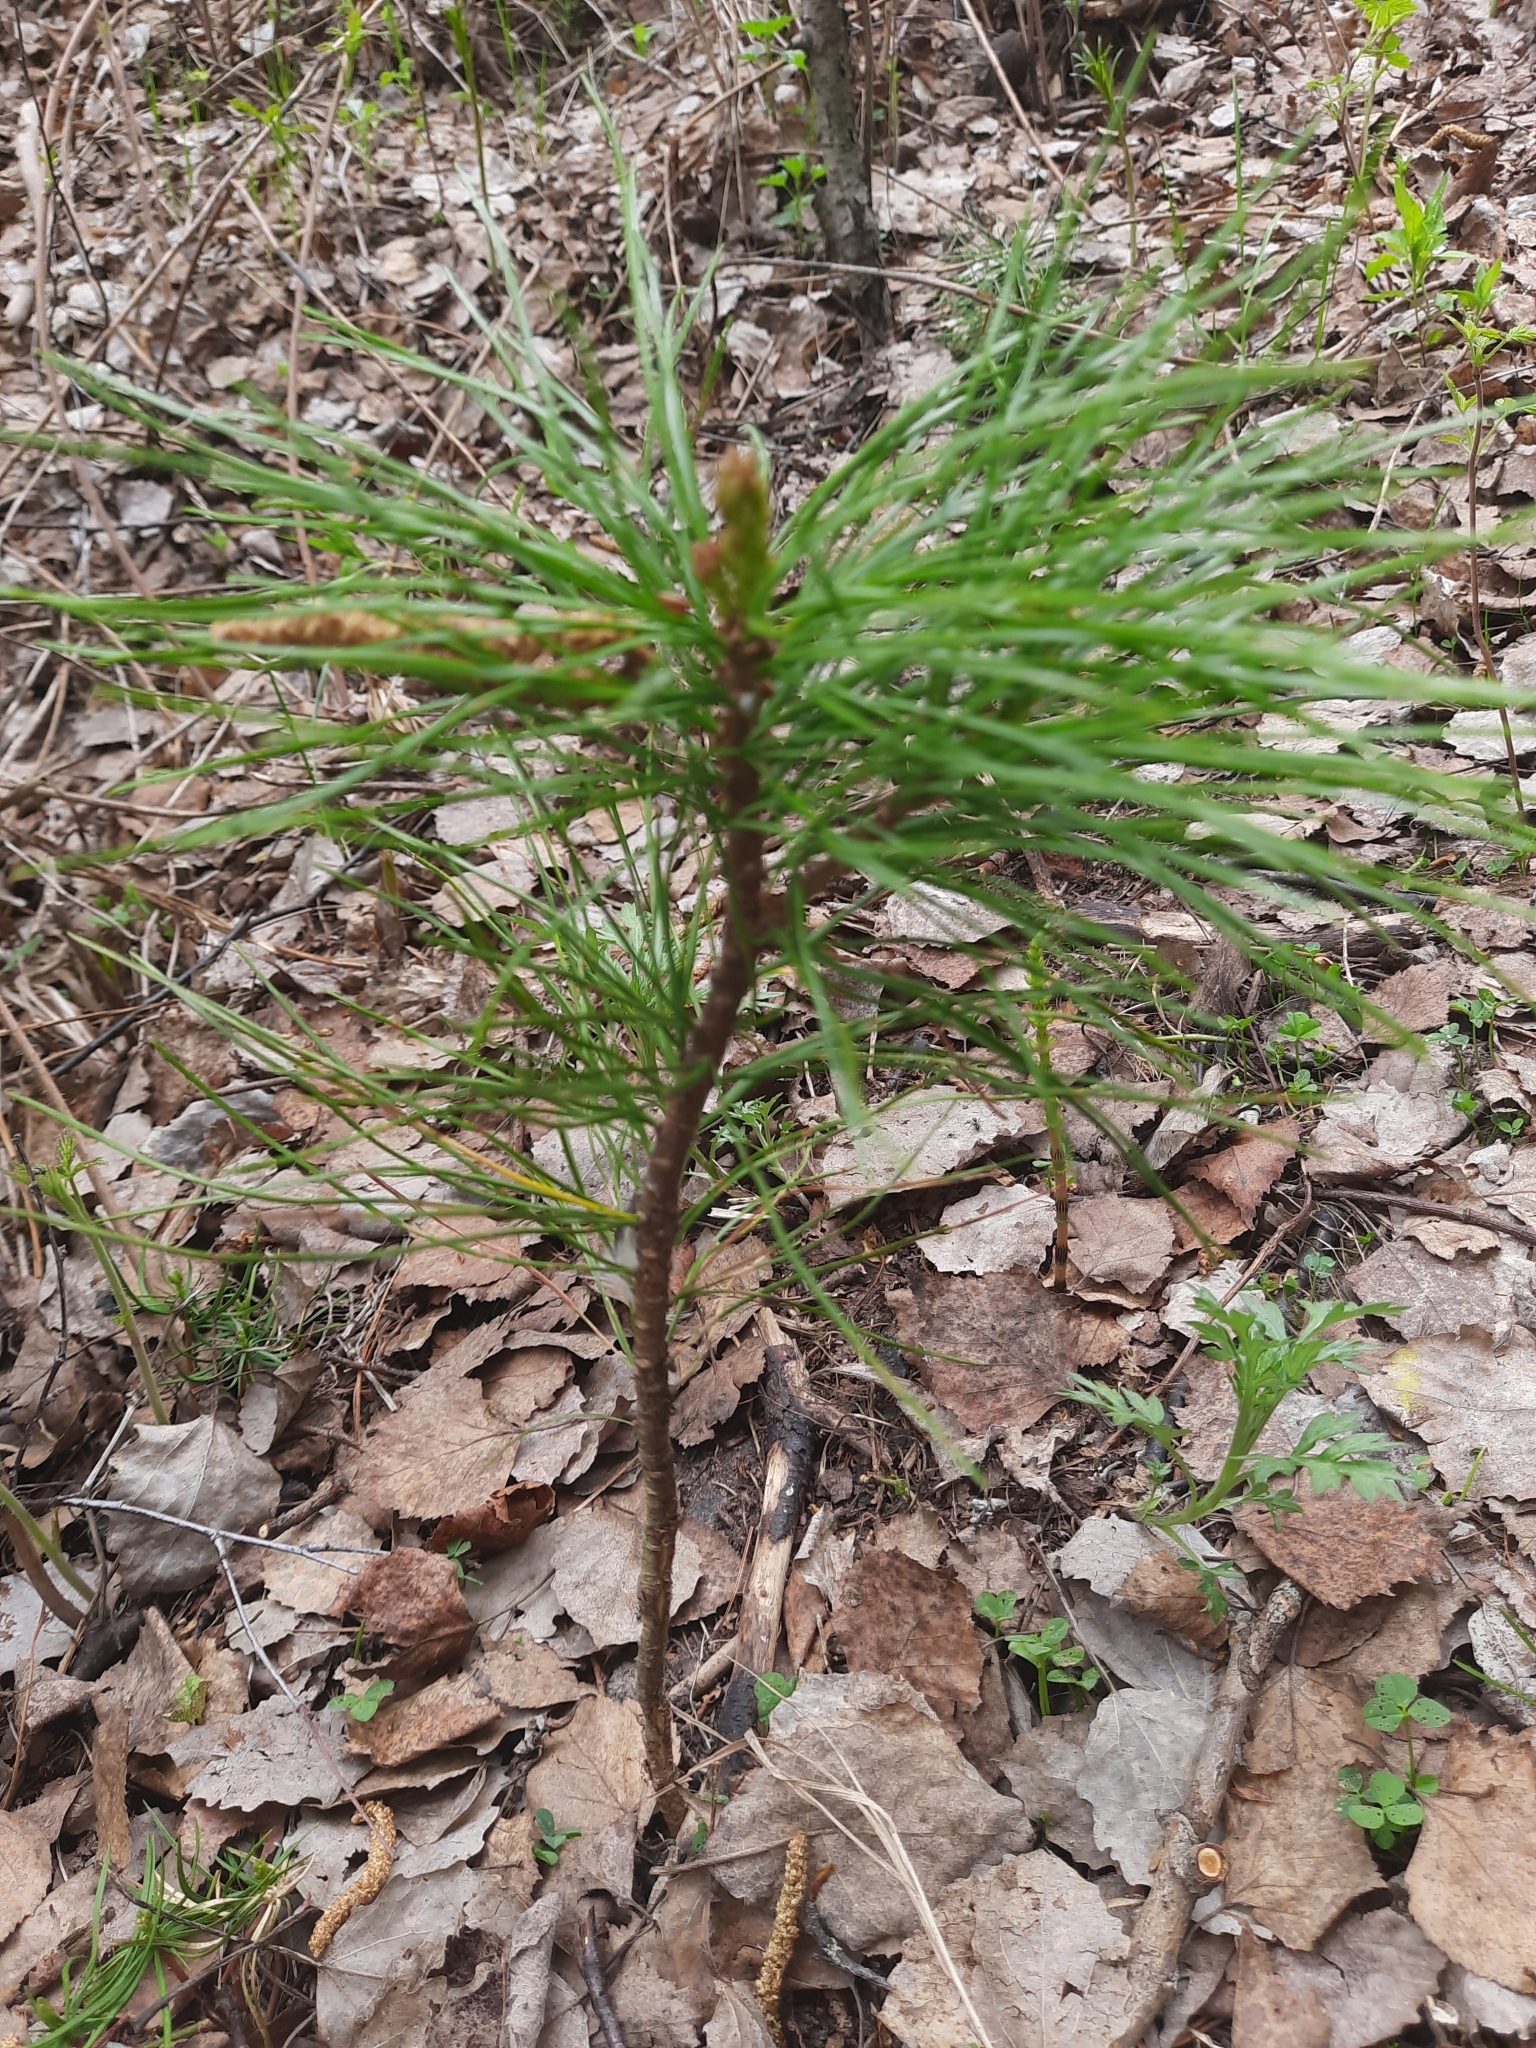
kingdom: Plantae
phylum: Tracheophyta
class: Pinopsida
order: Pinales
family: Pinaceae
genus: Pinus
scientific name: Pinus sibirica
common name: Siberian pine
